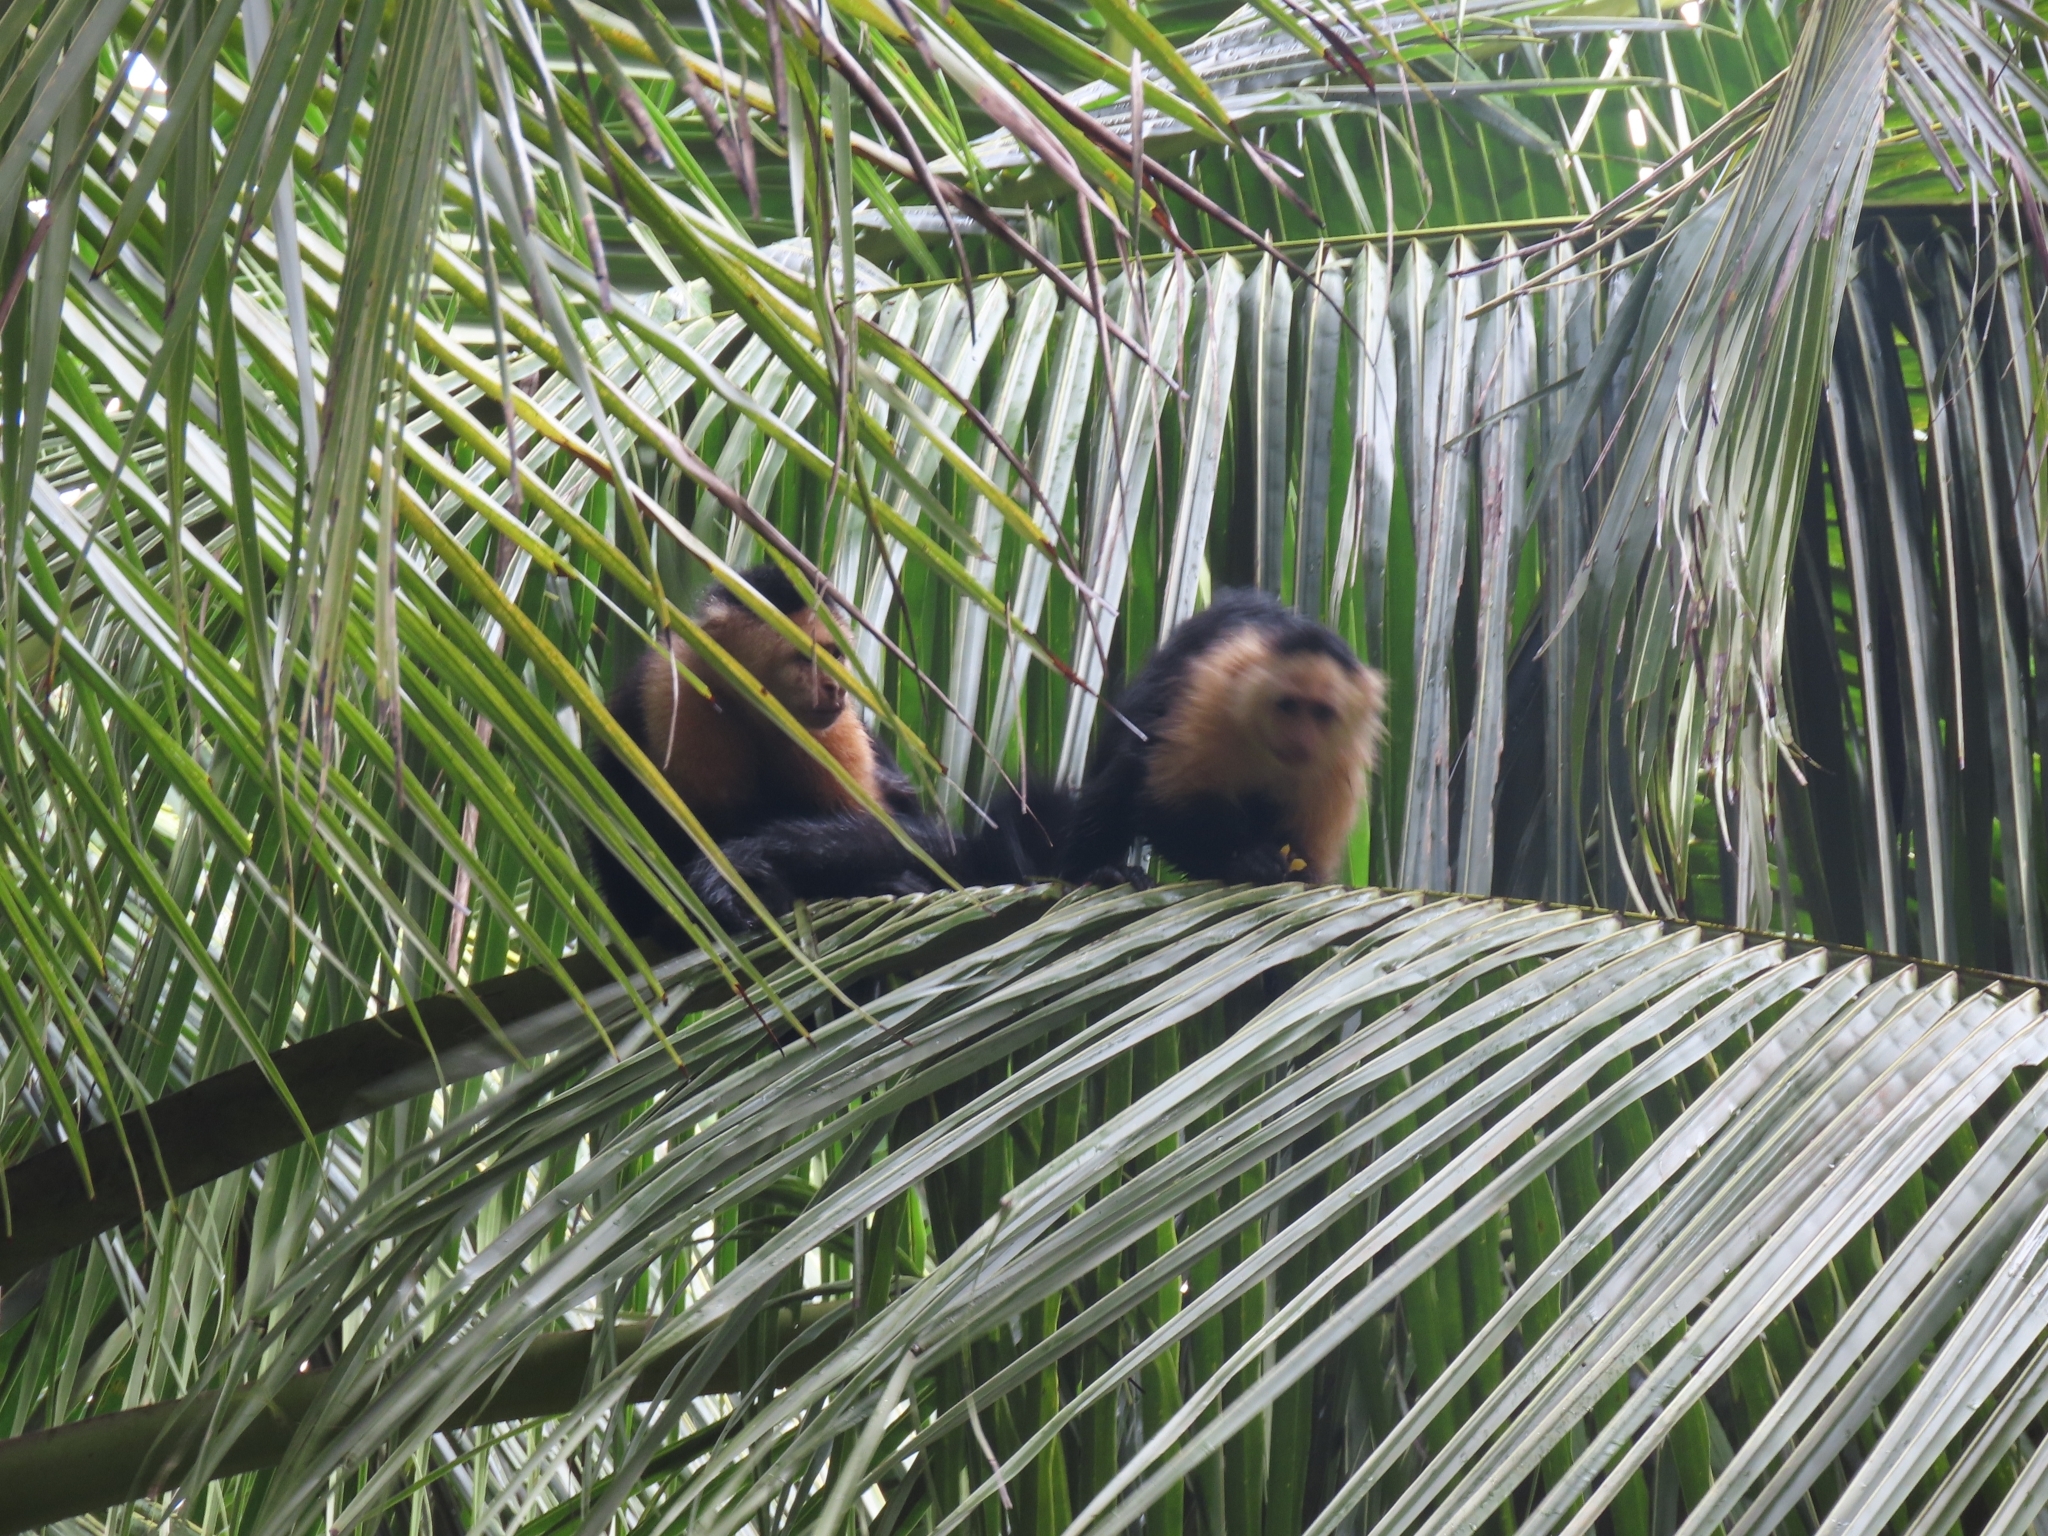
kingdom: Animalia
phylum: Chordata
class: Mammalia
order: Primates
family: Cebidae
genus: Cebus
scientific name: Cebus imitator
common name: Panamanian white-faced capuchin
